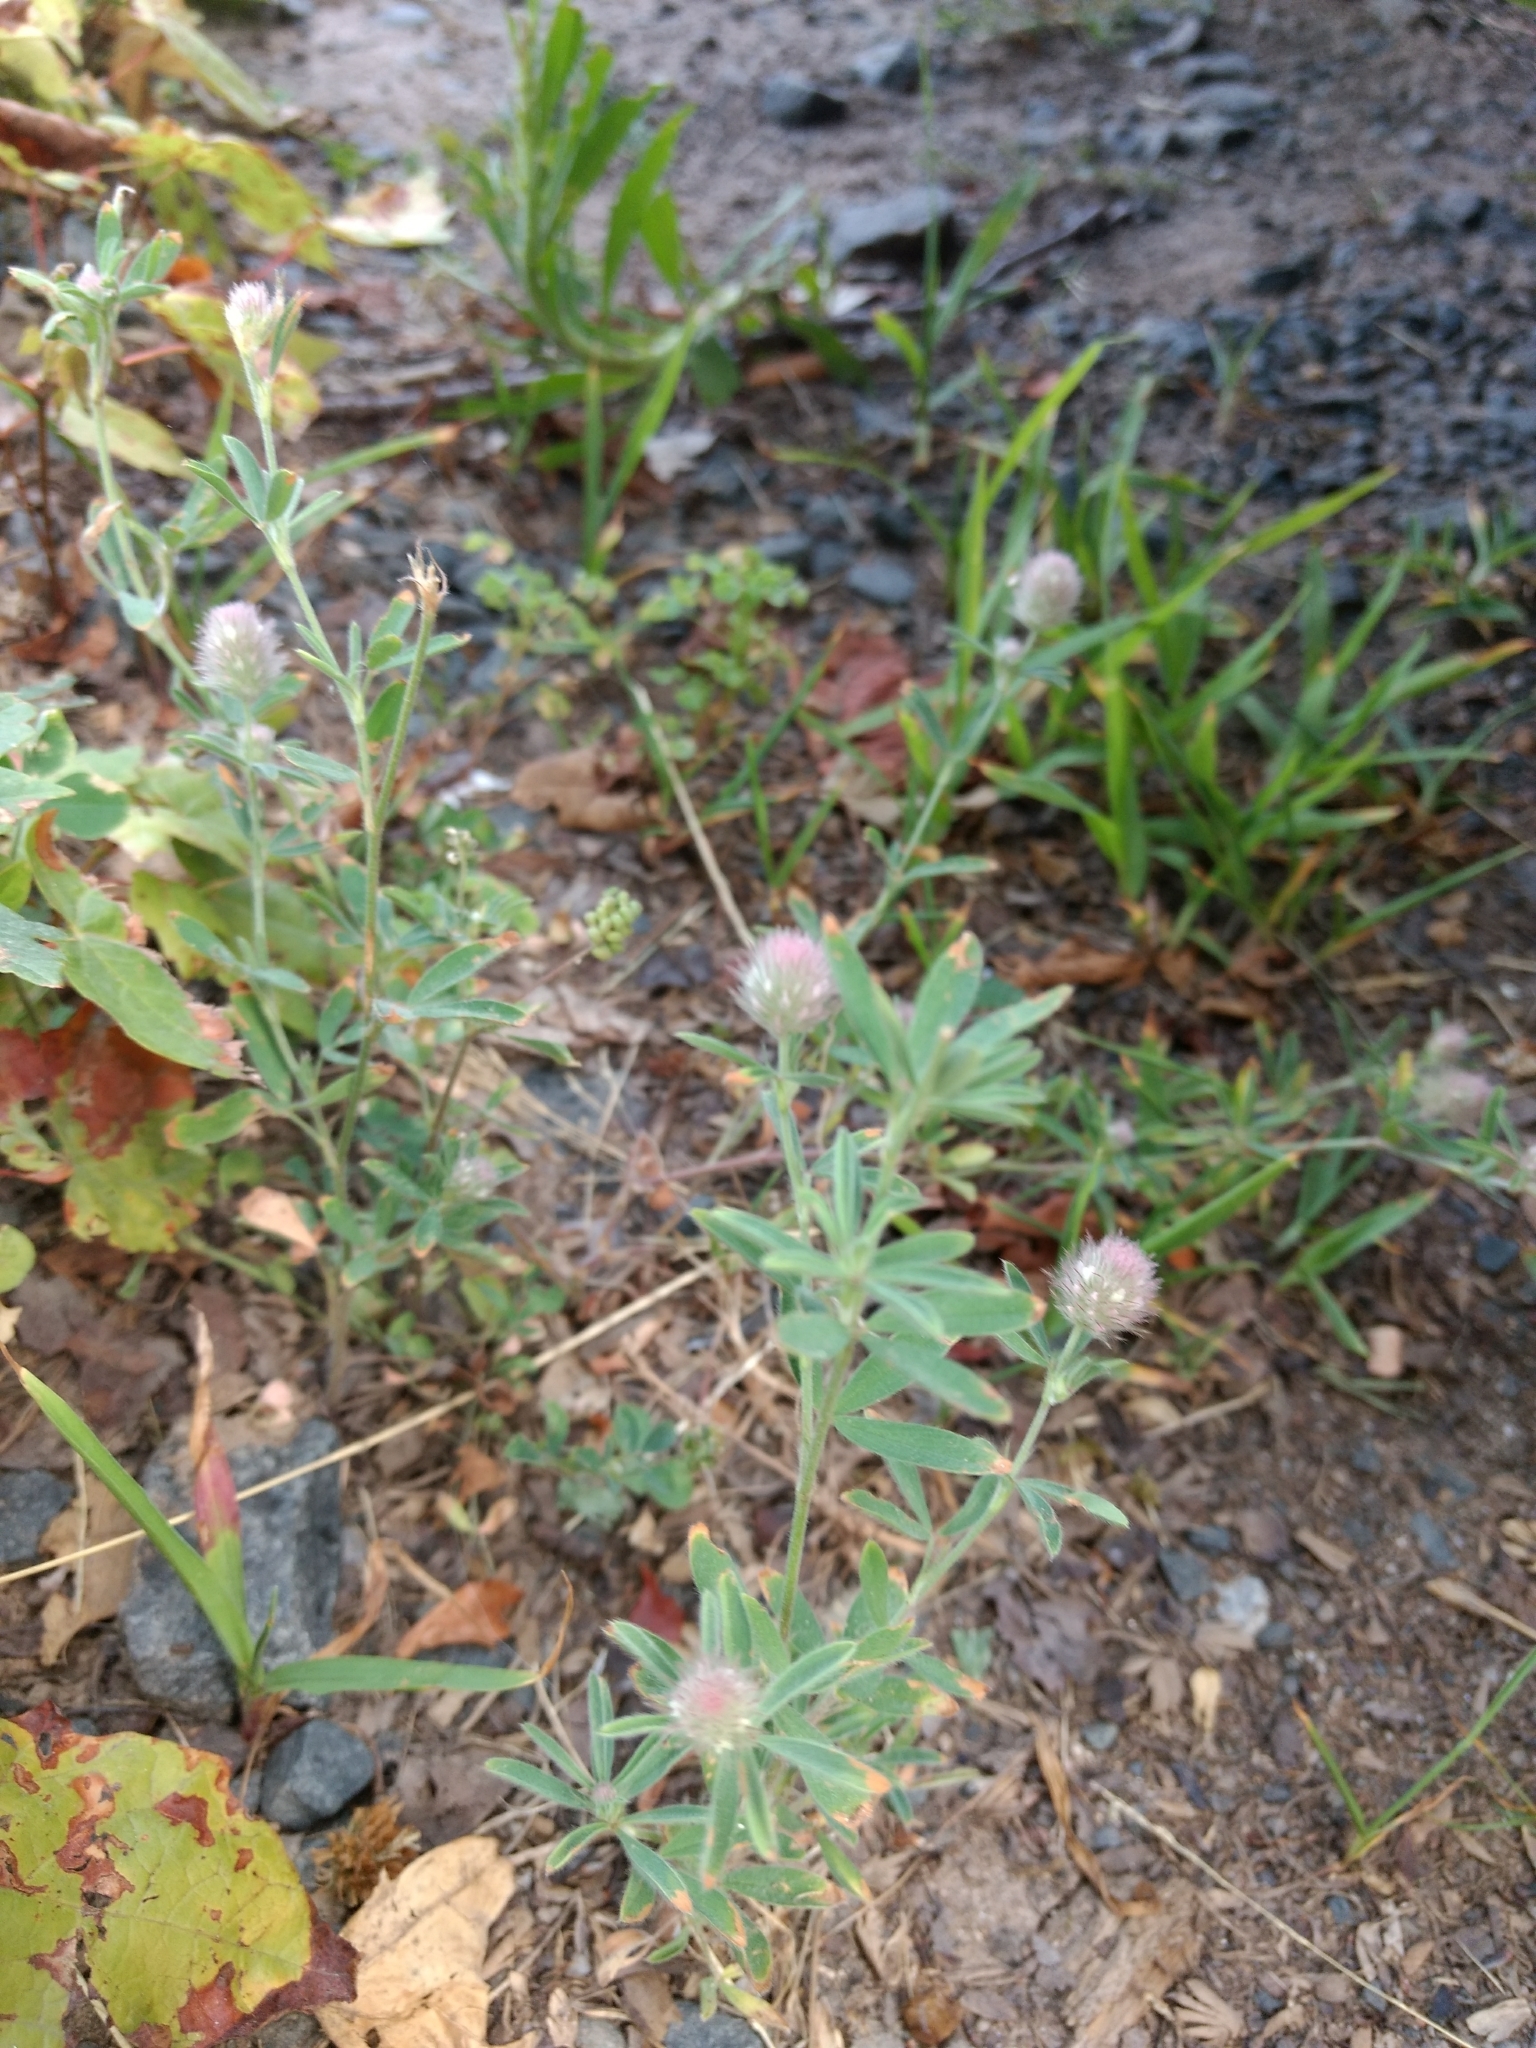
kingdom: Plantae
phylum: Tracheophyta
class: Magnoliopsida
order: Fabales
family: Fabaceae
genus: Trifolium
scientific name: Trifolium arvense
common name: Hare's-foot clover
